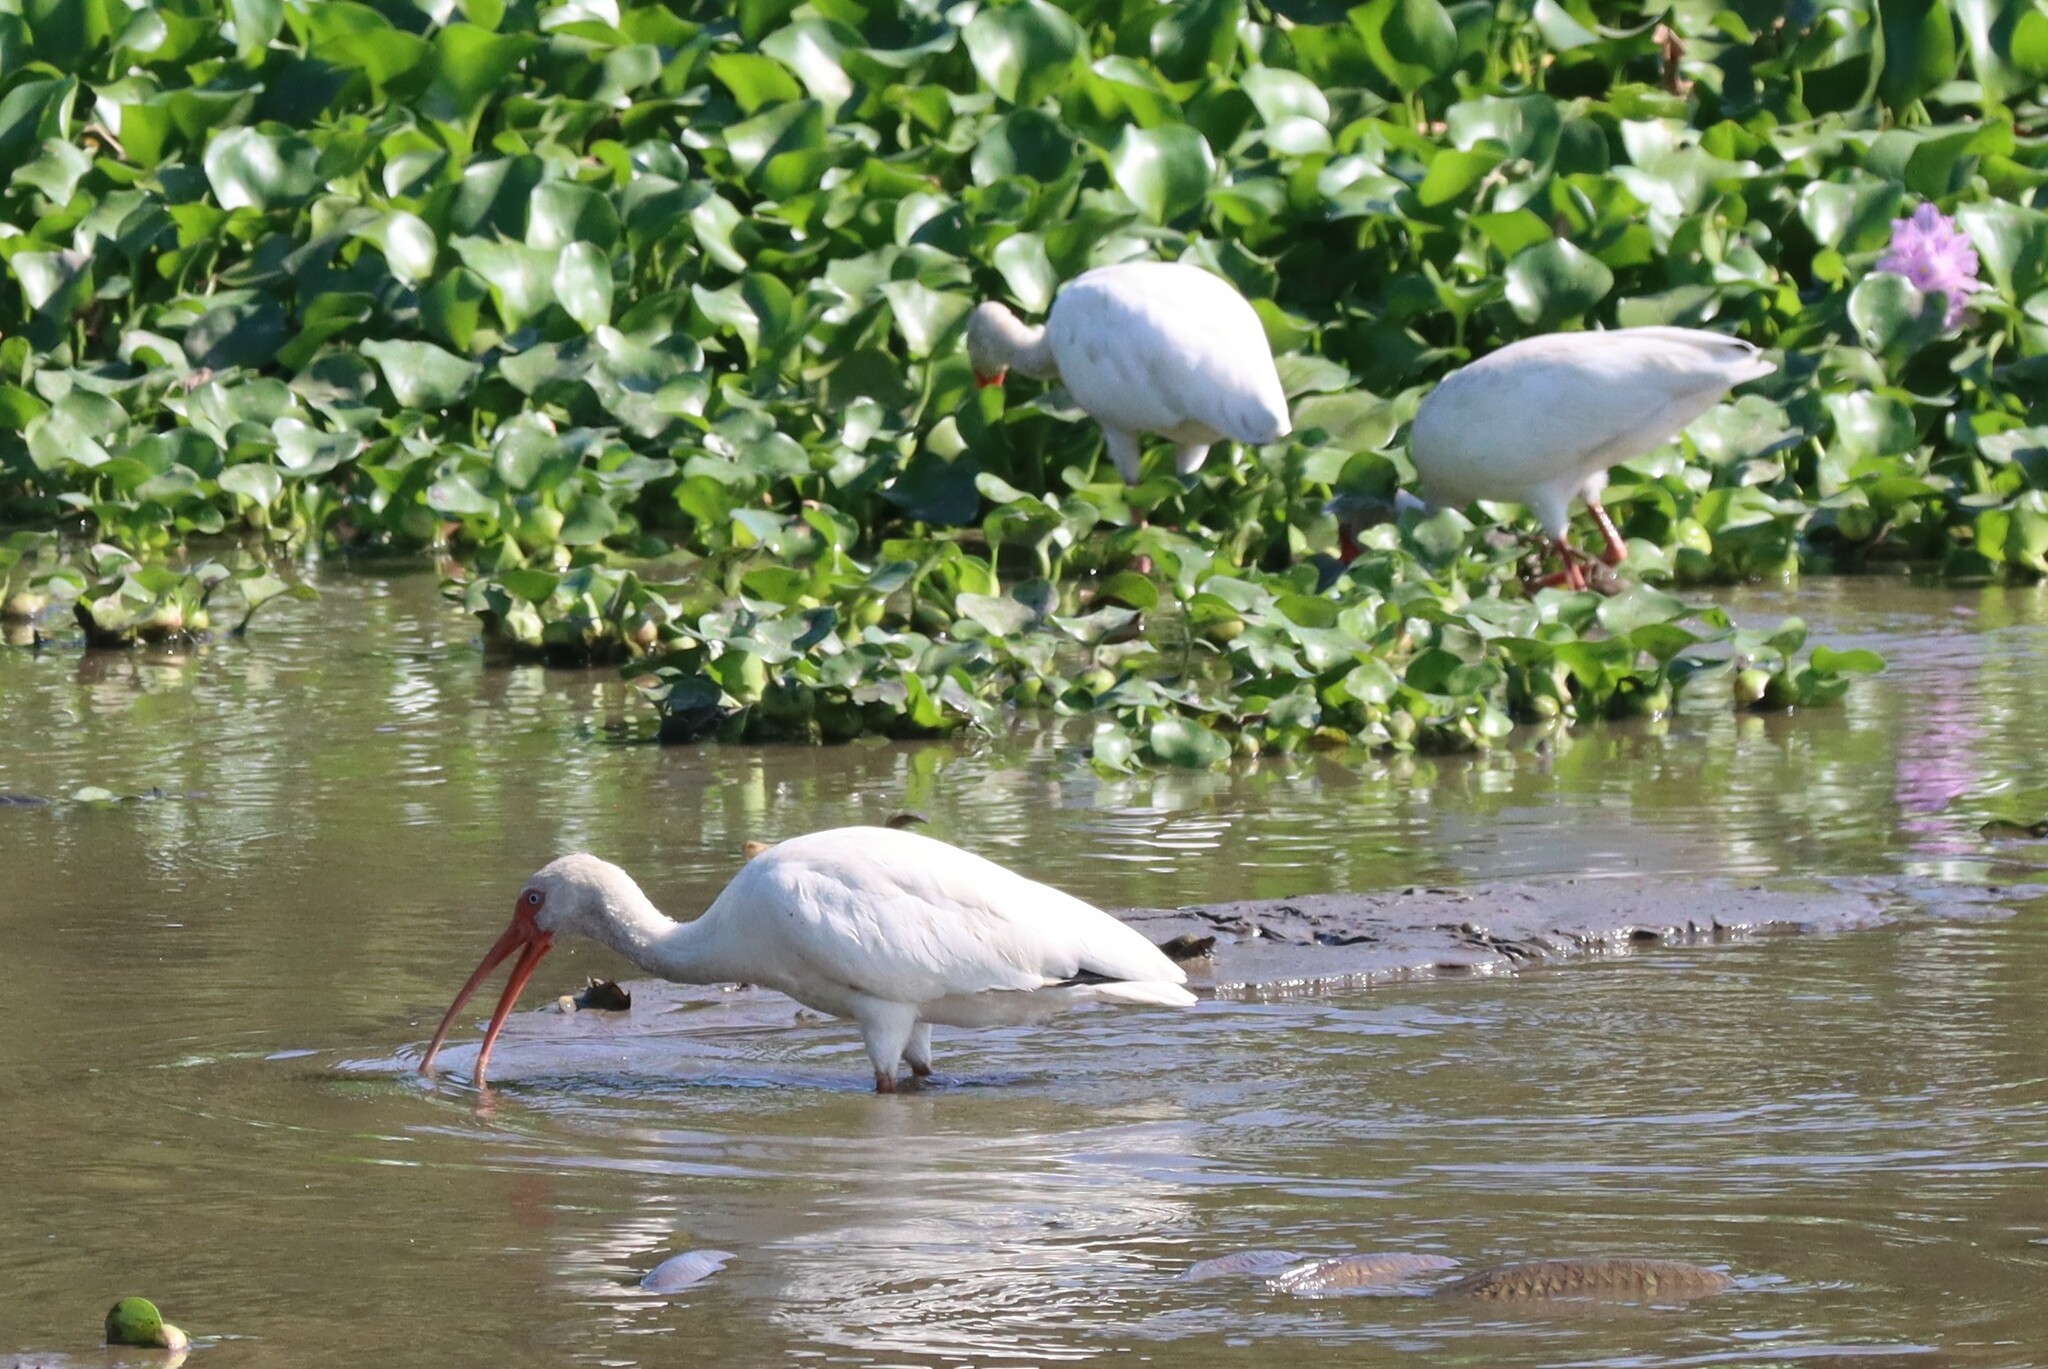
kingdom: Animalia
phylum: Chordata
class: Aves
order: Pelecaniformes
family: Threskiornithidae
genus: Eudocimus
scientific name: Eudocimus albus
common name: White ibis
